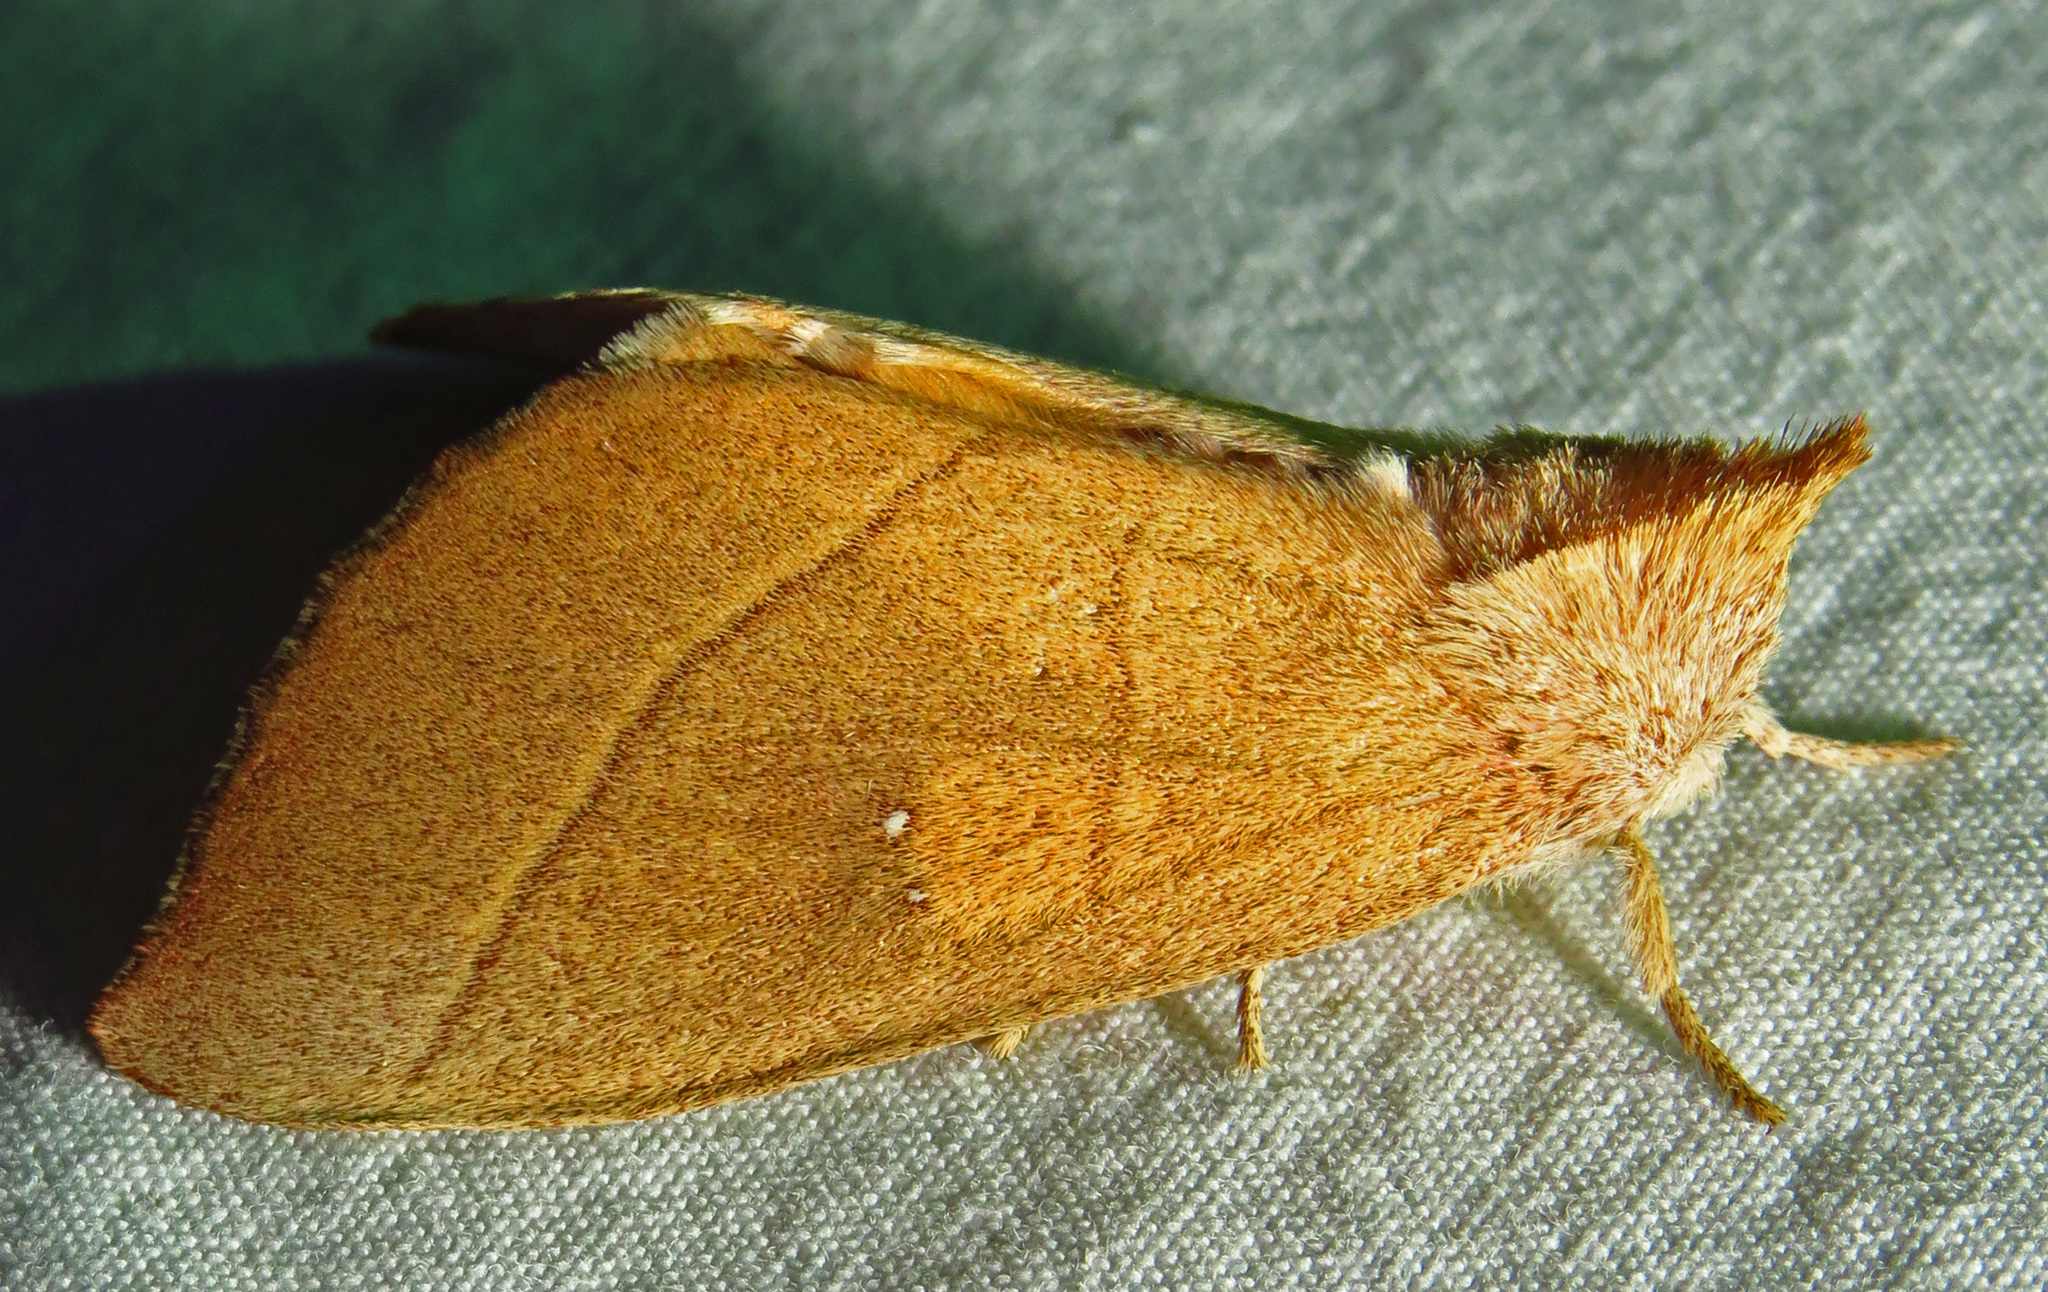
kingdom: Animalia
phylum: Arthropoda
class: Insecta
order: Lepidoptera
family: Notodontidae
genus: Nadata
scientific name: Nadata gibbosa
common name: White-dotted prominent
